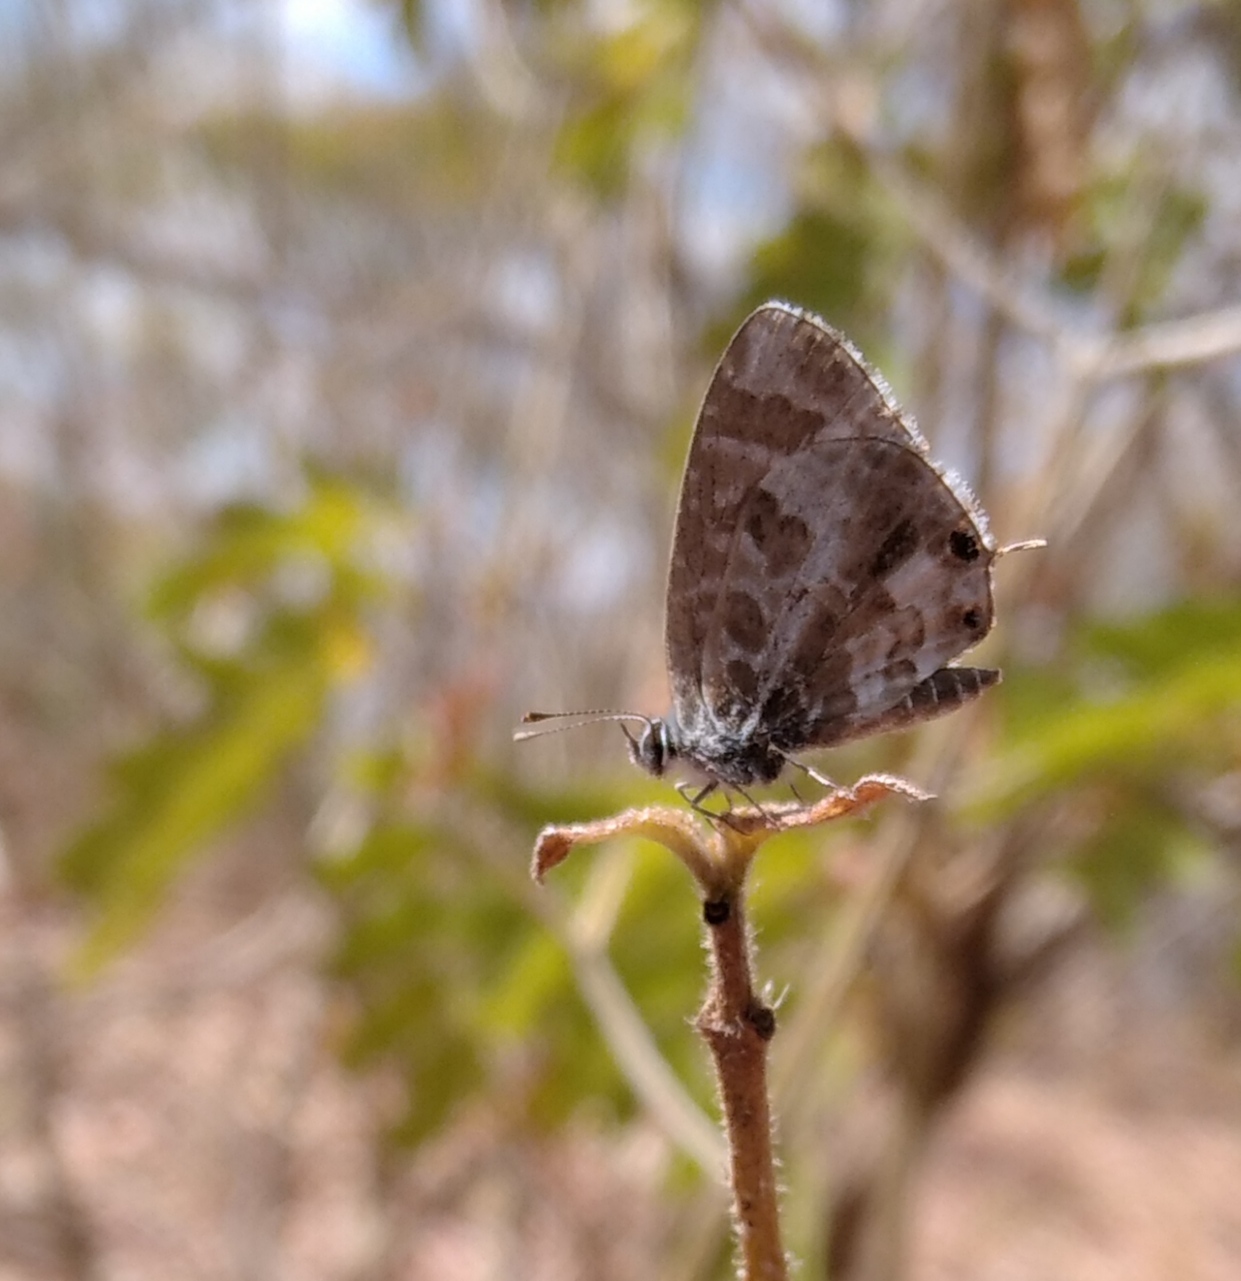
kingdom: Animalia
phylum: Arthropoda
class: Insecta
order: Lepidoptera
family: Lycaenidae
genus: Cacyreus
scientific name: Cacyreus virilis
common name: Alternative bush blue
